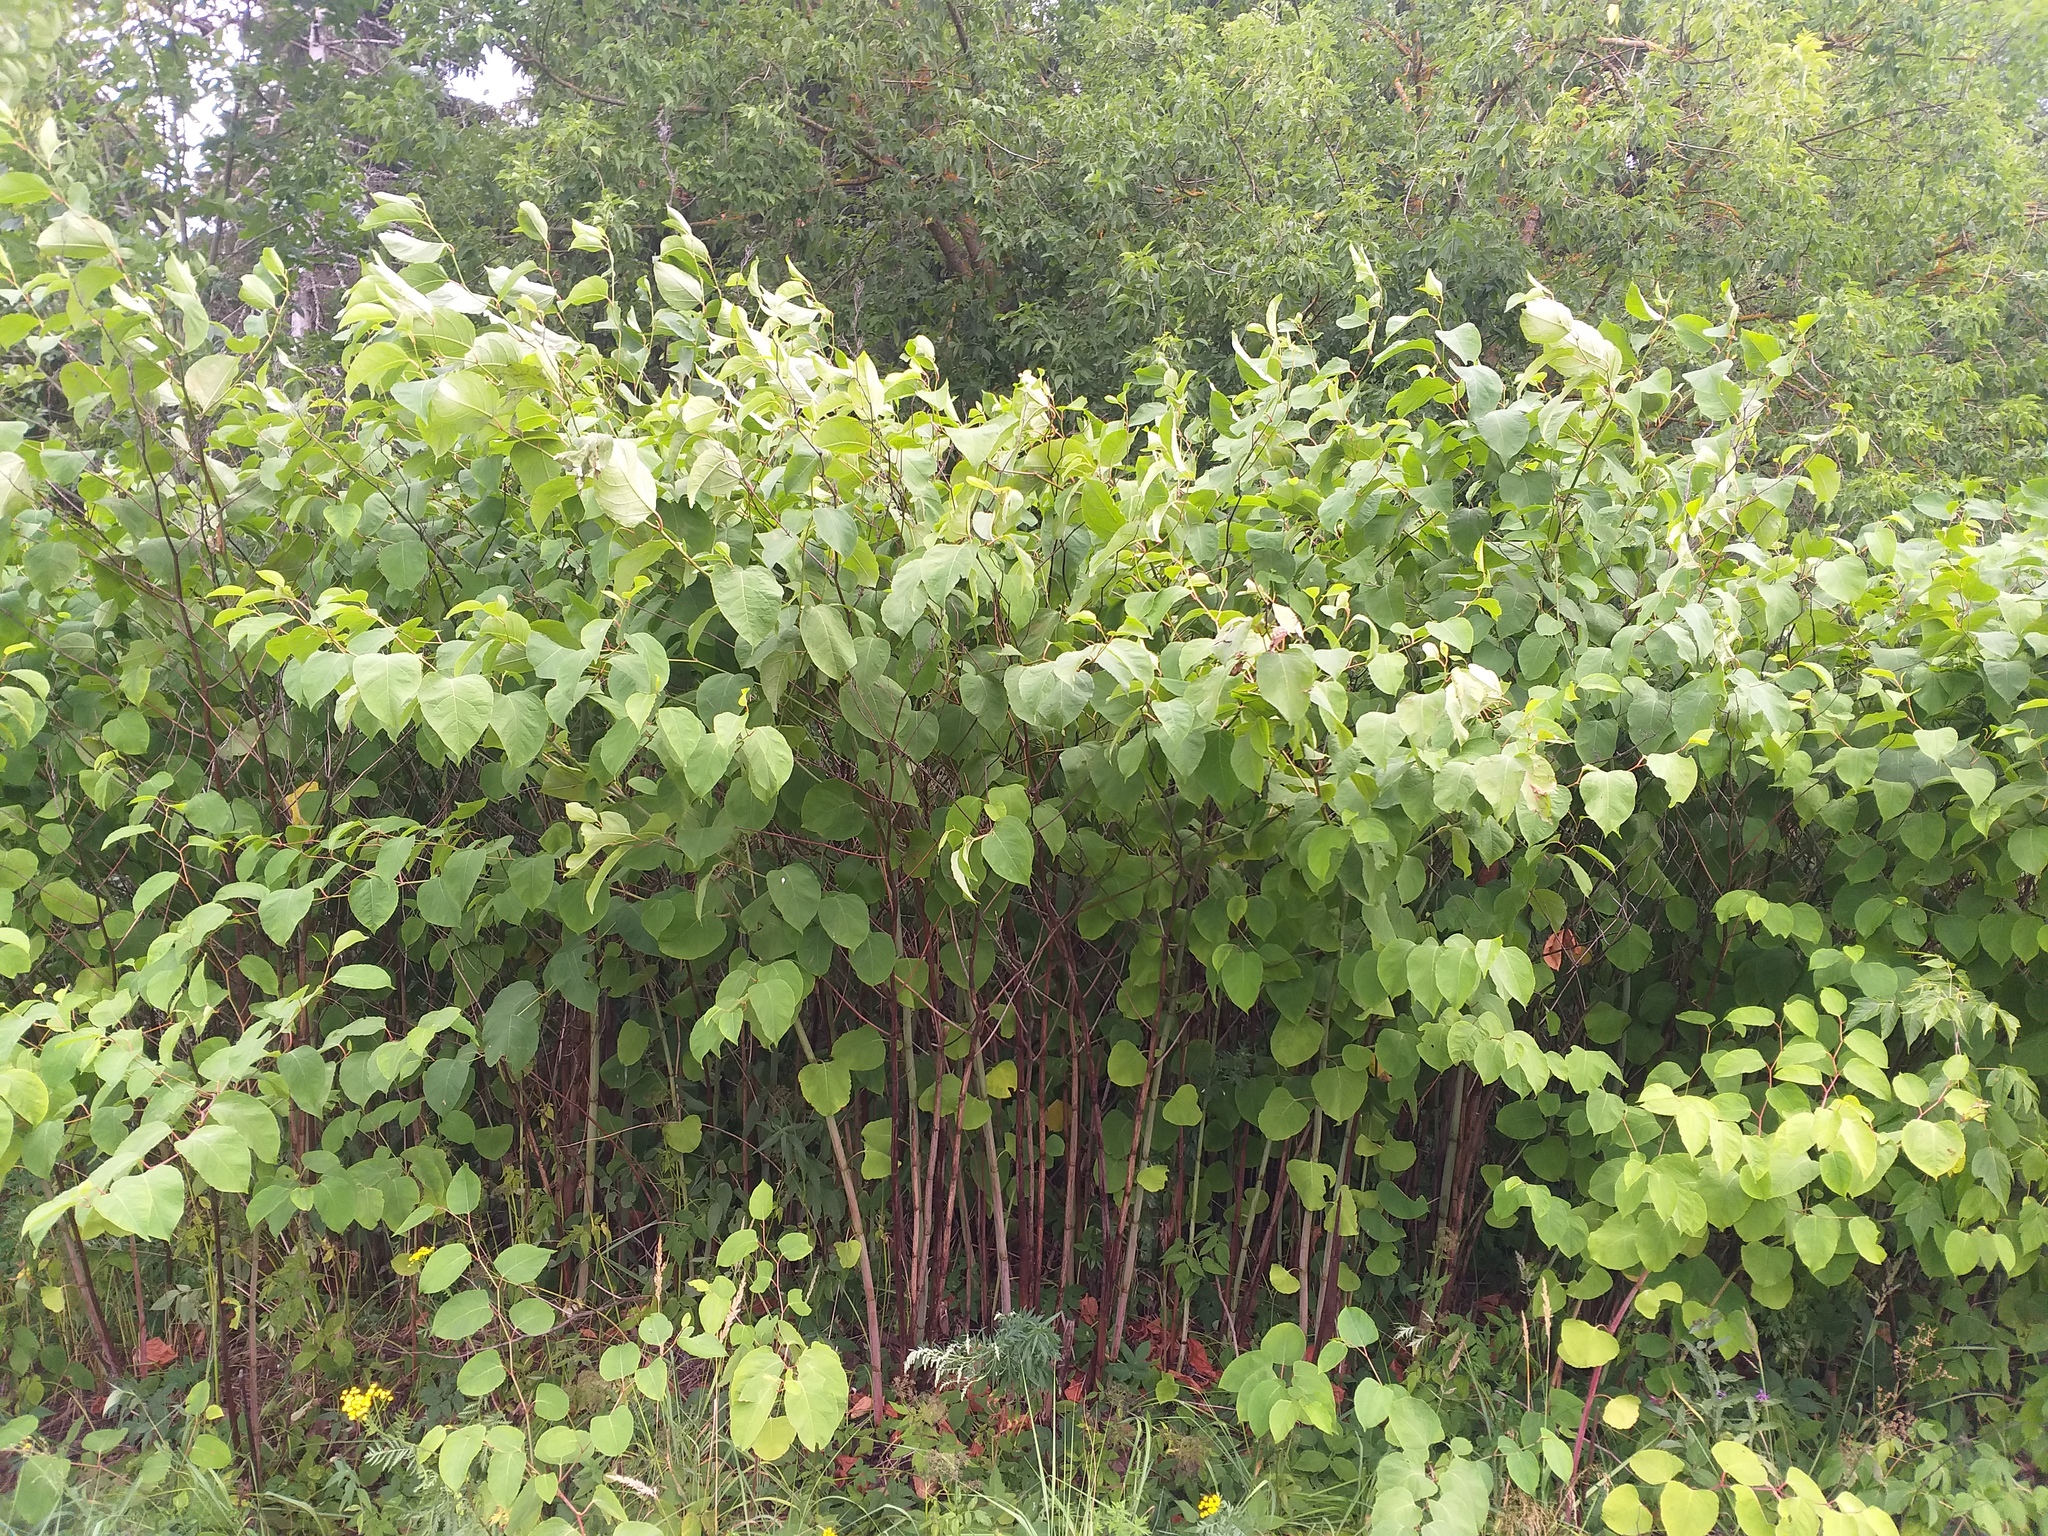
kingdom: Plantae
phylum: Tracheophyta
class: Magnoliopsida
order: Caryophyllales
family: Polygonaceae
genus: Reynoutria
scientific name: Reynoutria bohemica
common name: Bohemian knotweed
